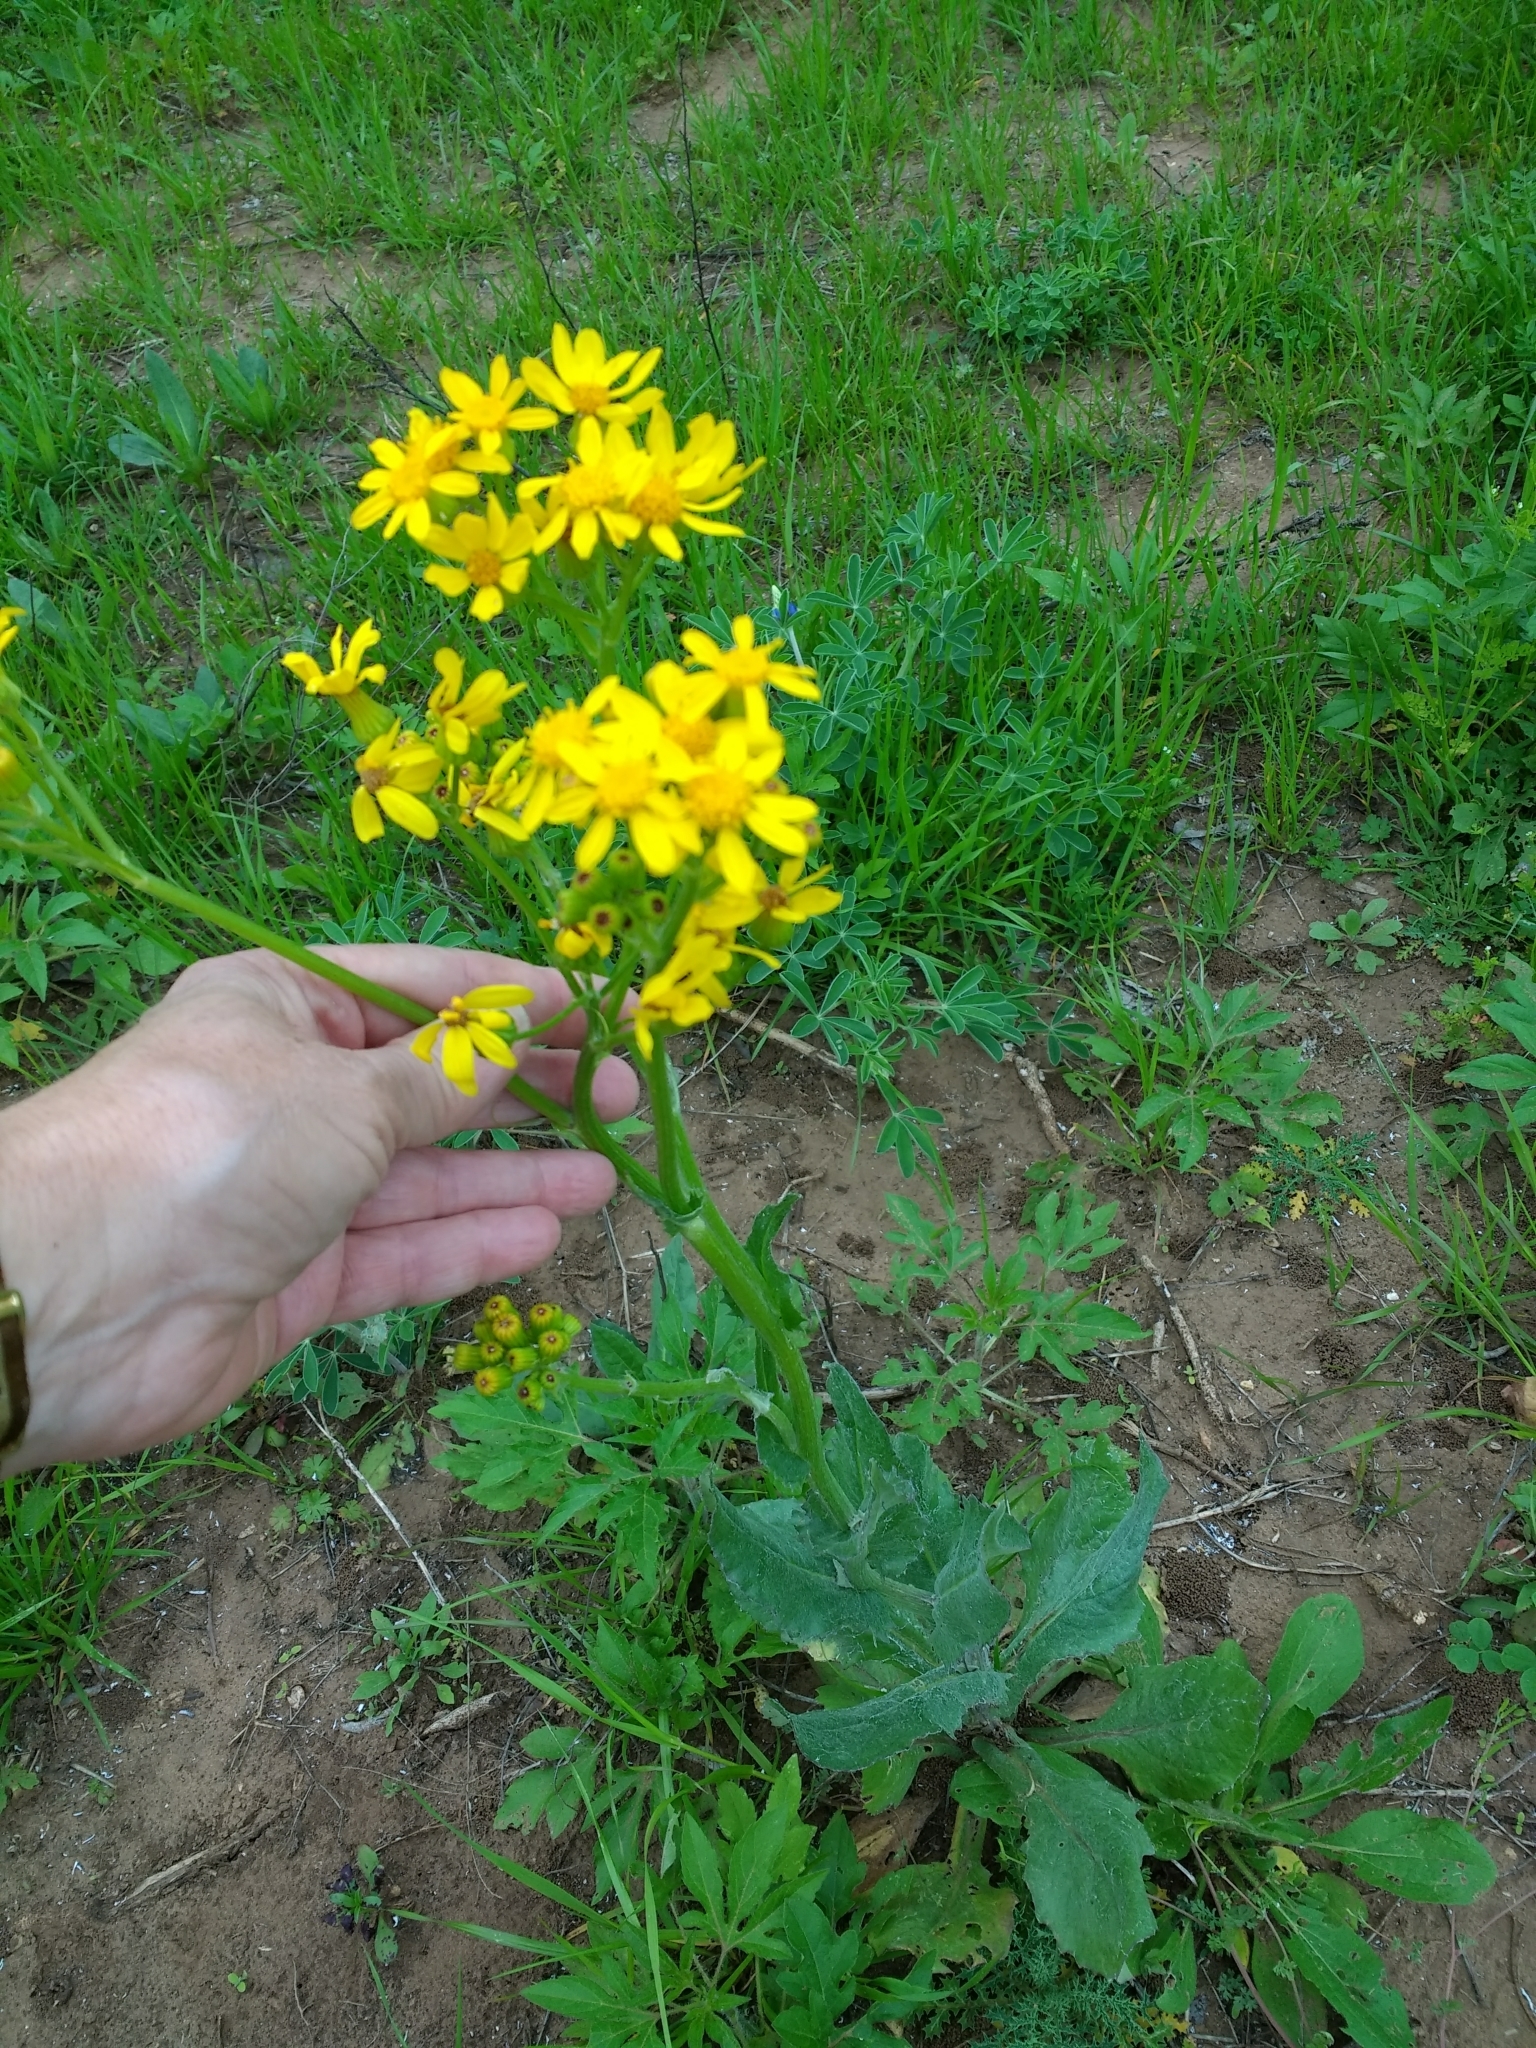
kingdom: Plantae
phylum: Tracheophyta
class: Magnoliopsida
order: Asterales
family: Asteraceae
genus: Senecio
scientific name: Senecio ampullaceus
